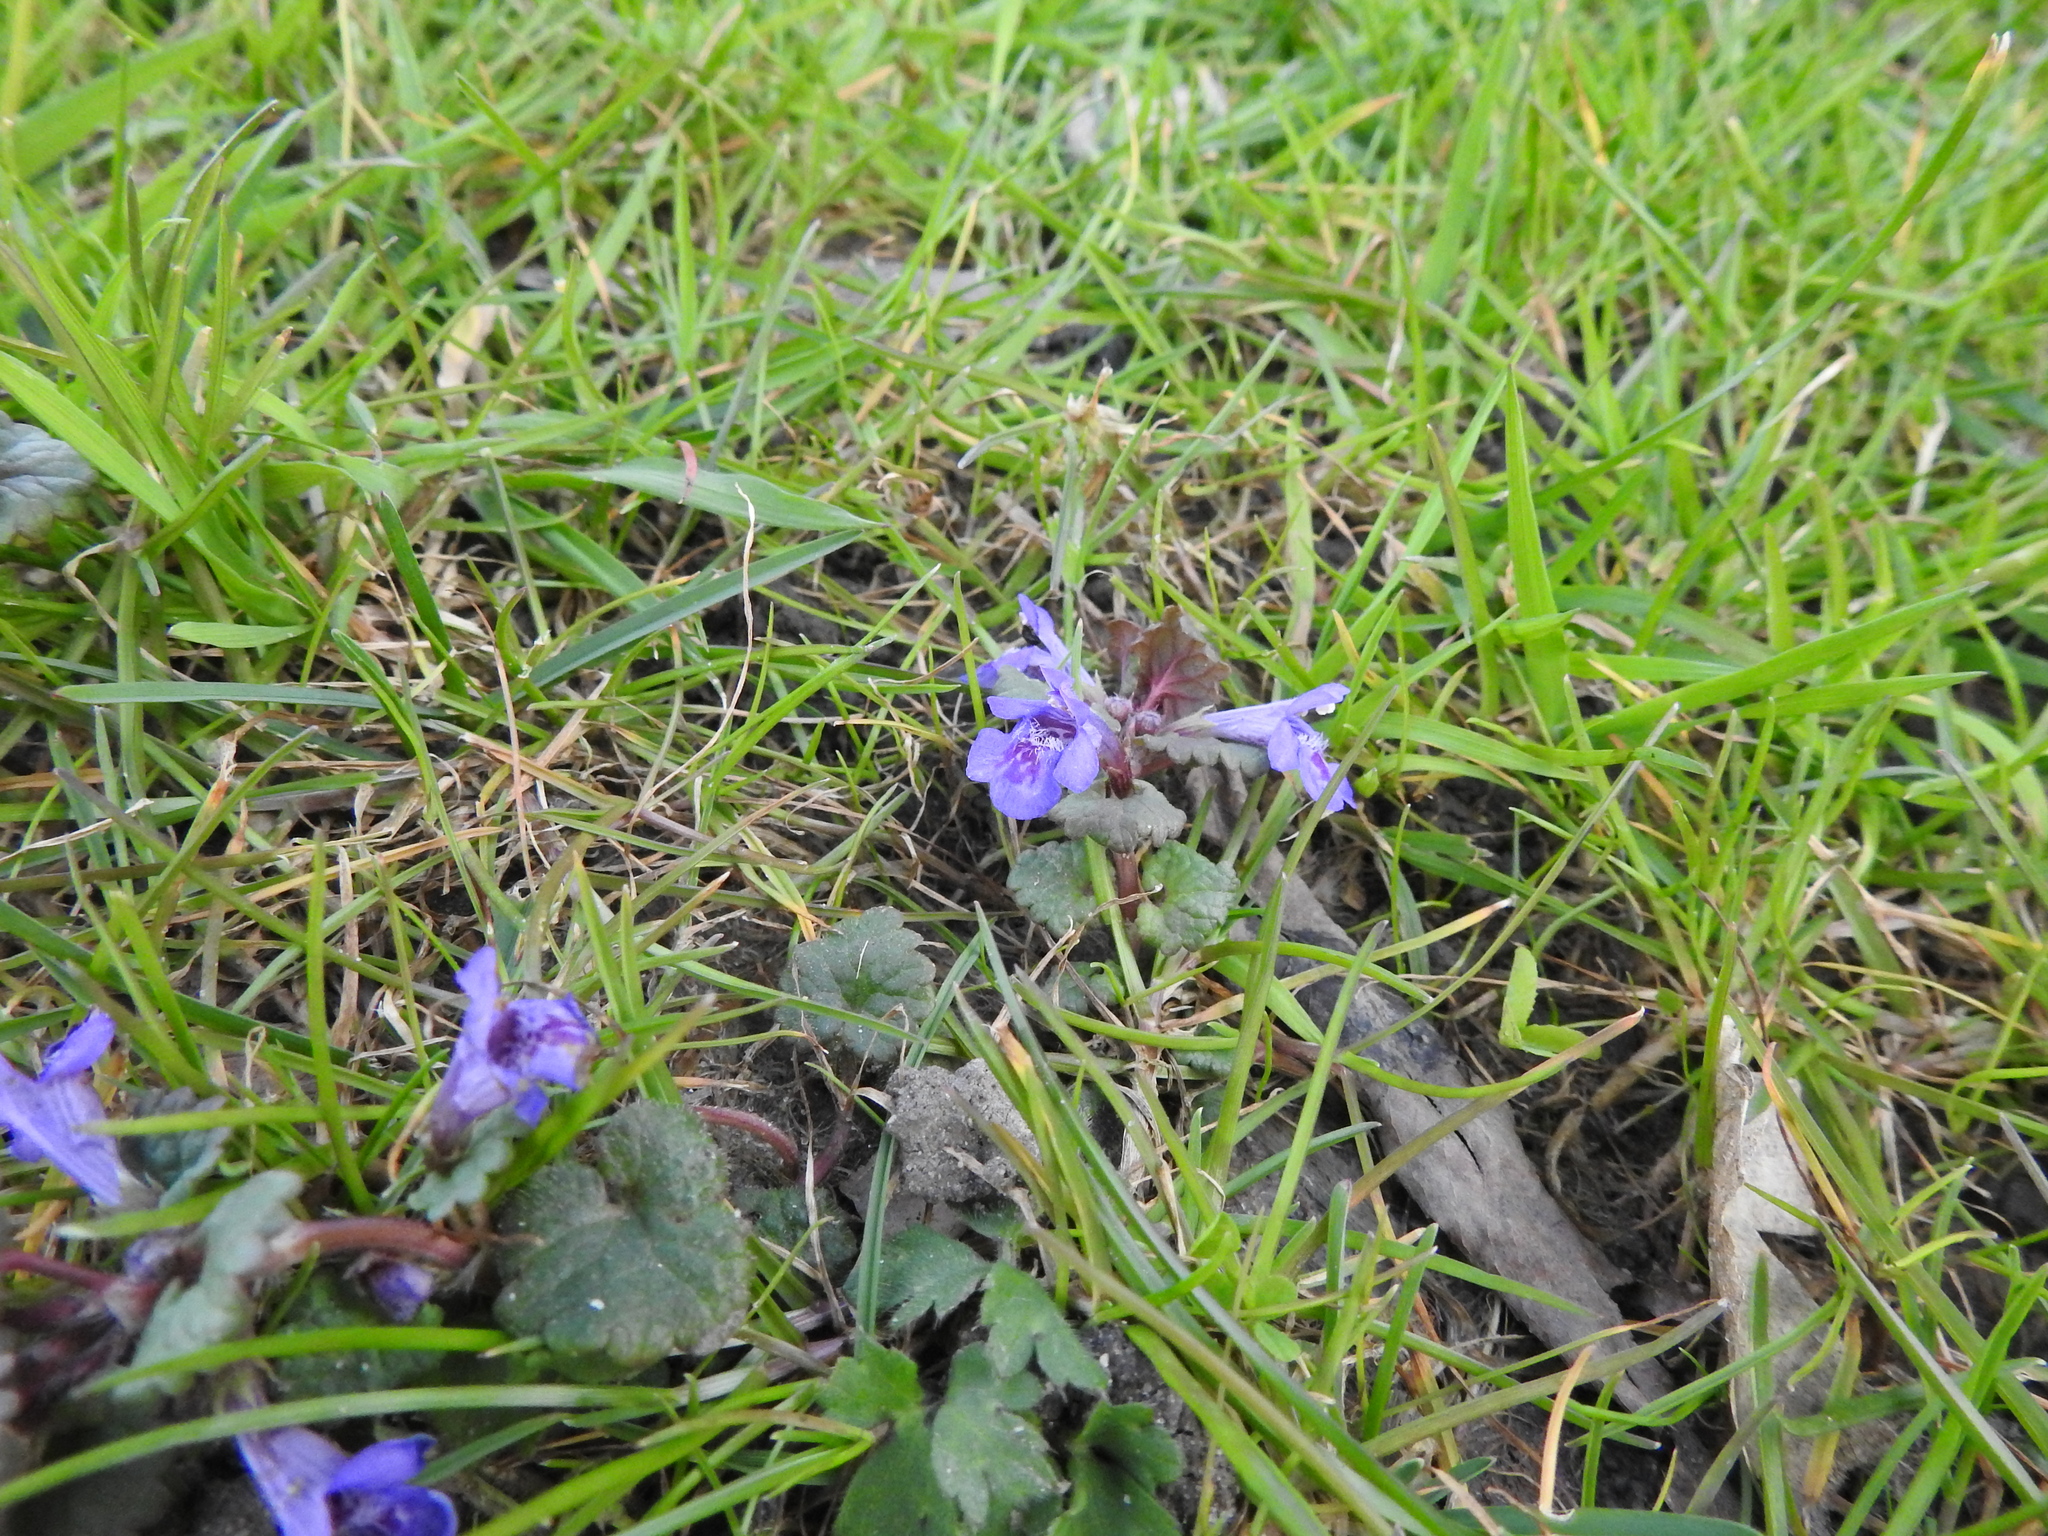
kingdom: Plantae
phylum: Tracheophyta
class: Magnoliopsida
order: Lamiales
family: Lamiaceae
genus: Glechoma
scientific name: Glechoma hederacea
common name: Ground ivy
